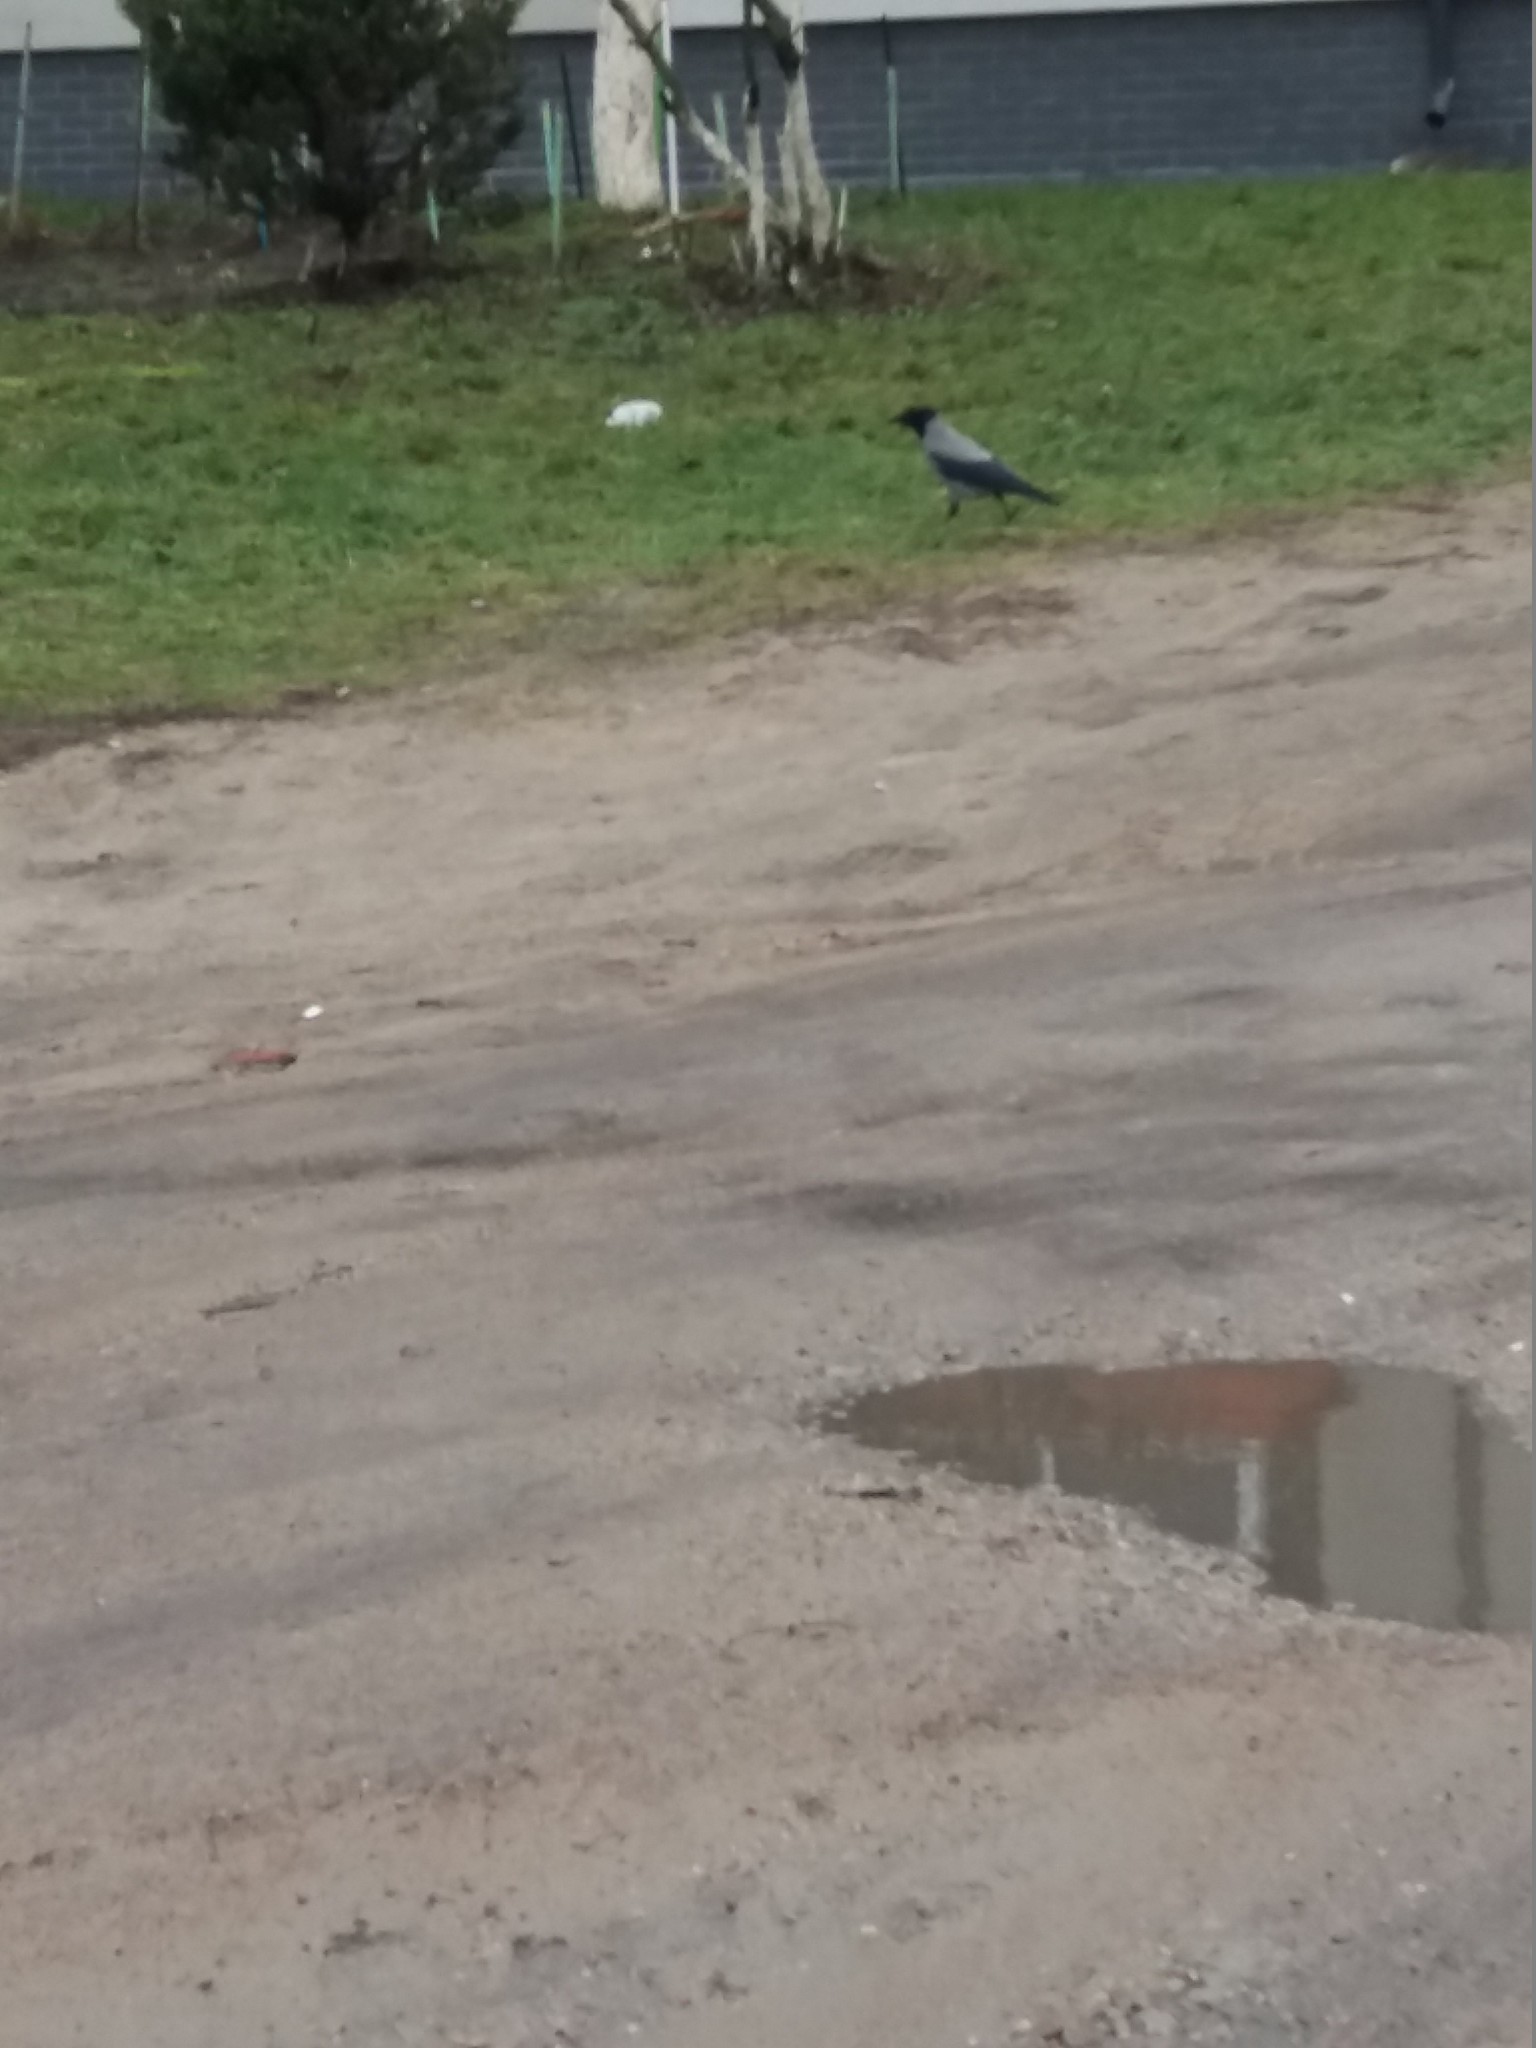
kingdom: Animalia
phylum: Chordata
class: Aves
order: Passeriformes
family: Corvidae
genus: Corvus
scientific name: Corvus cornix
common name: Hooded crow
